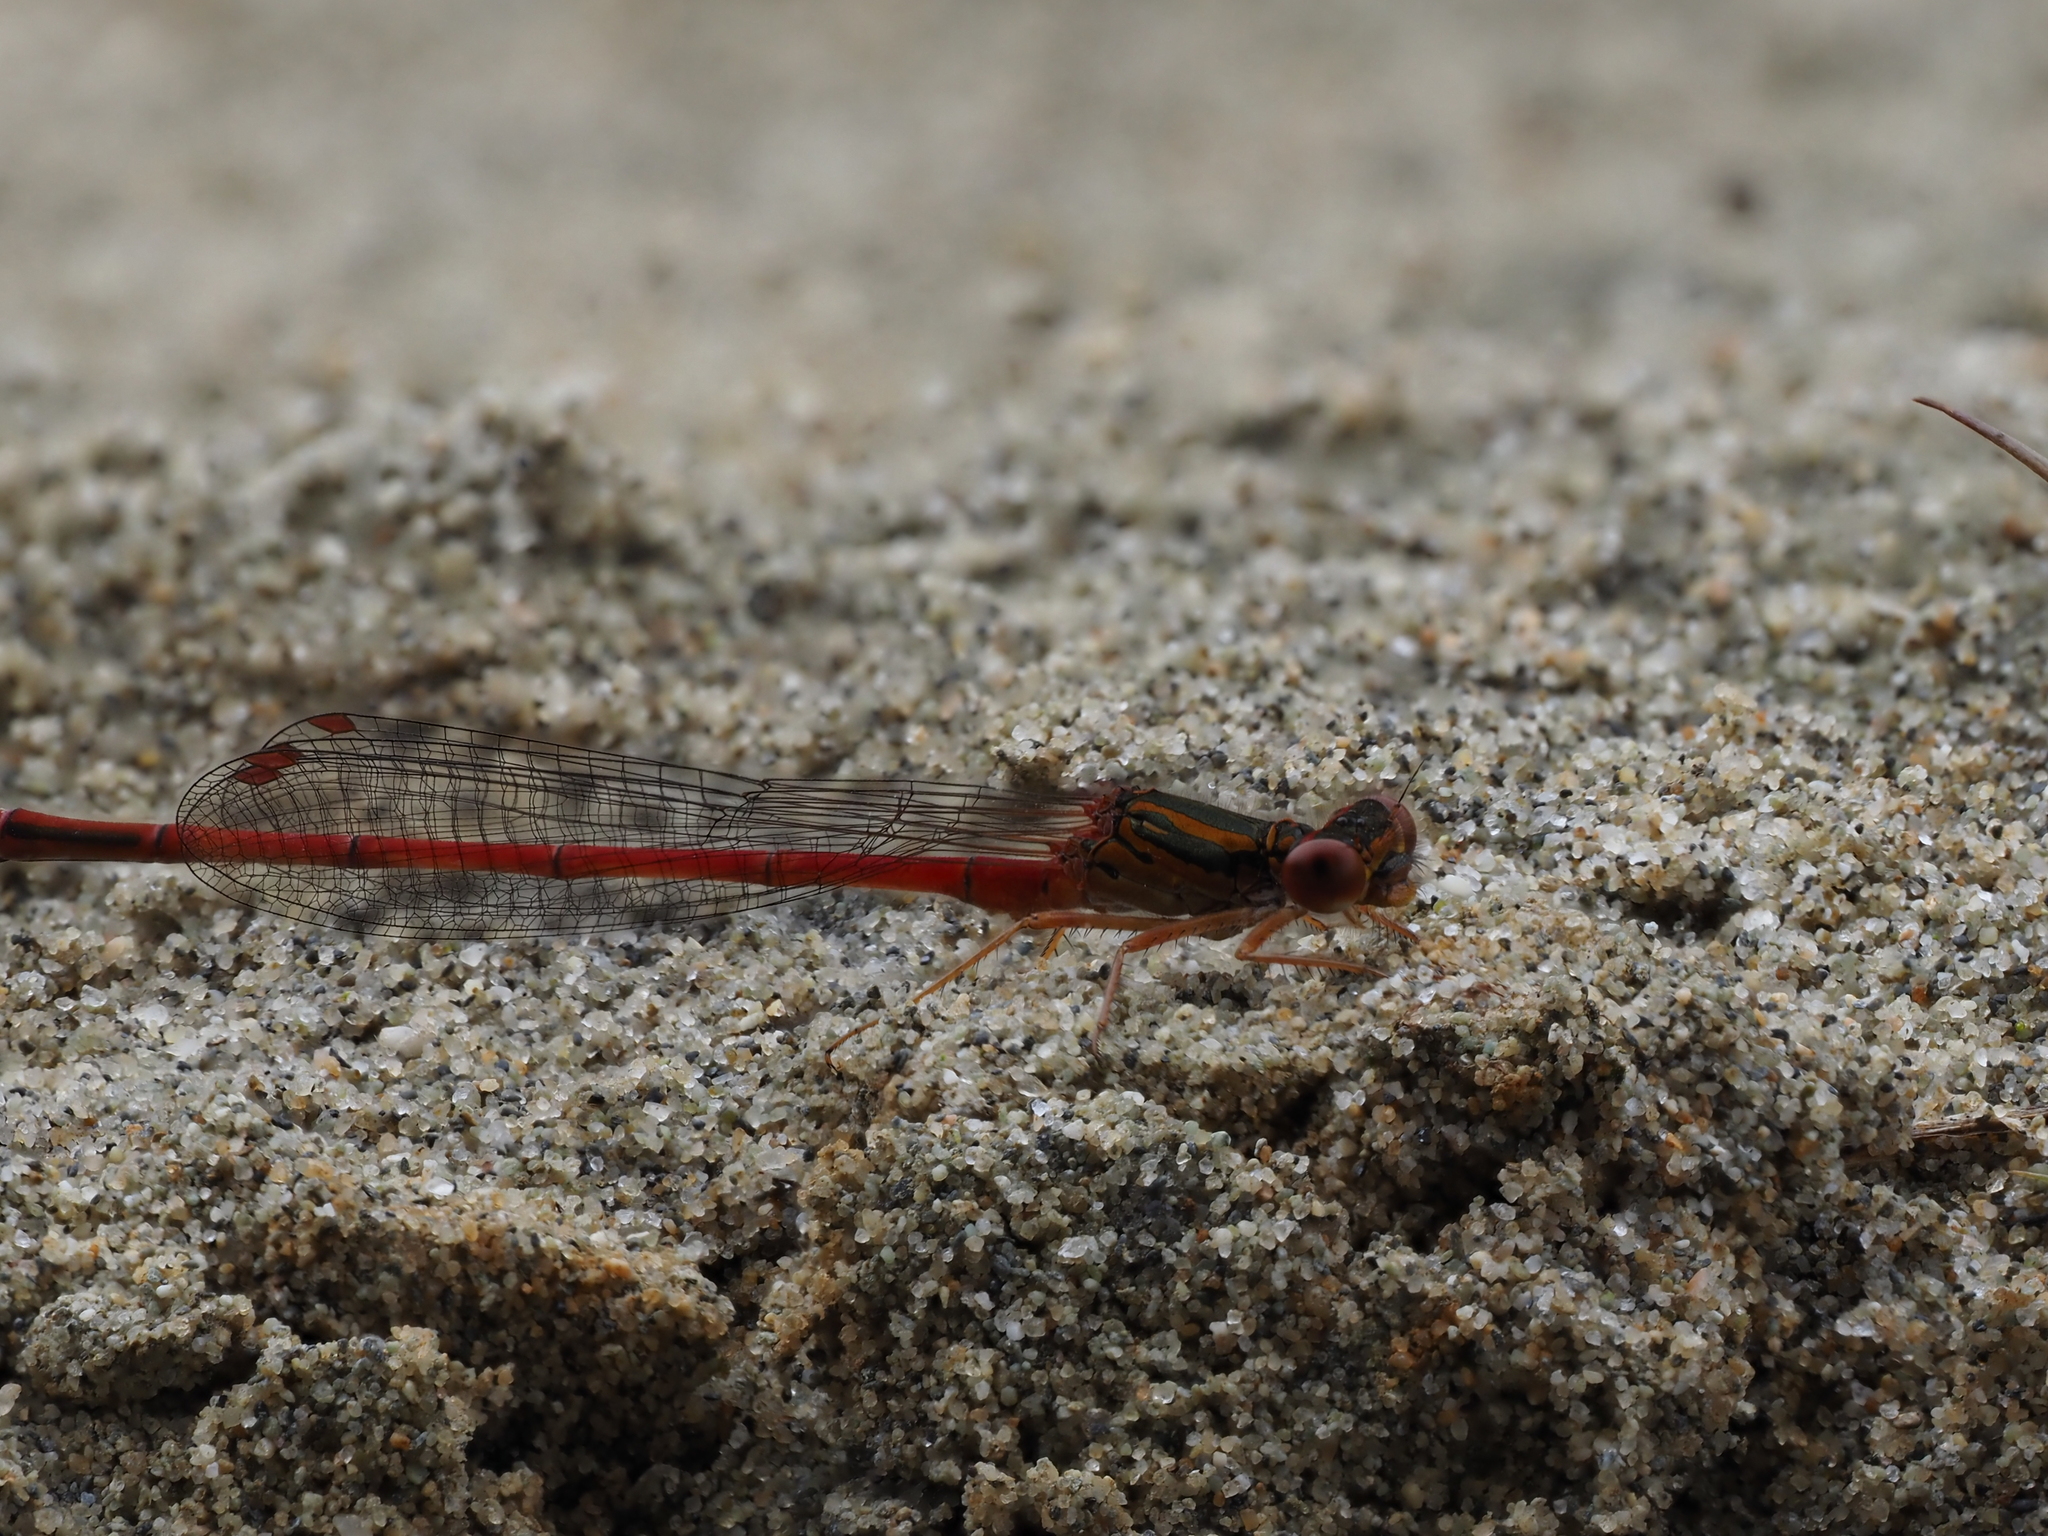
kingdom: Animalia
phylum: Arthropoda
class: Insecta
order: Odonata
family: Coenagrionidae
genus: Xanthocnemis
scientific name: Xanthocnemis zealandica
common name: Common redcoat damselfly
